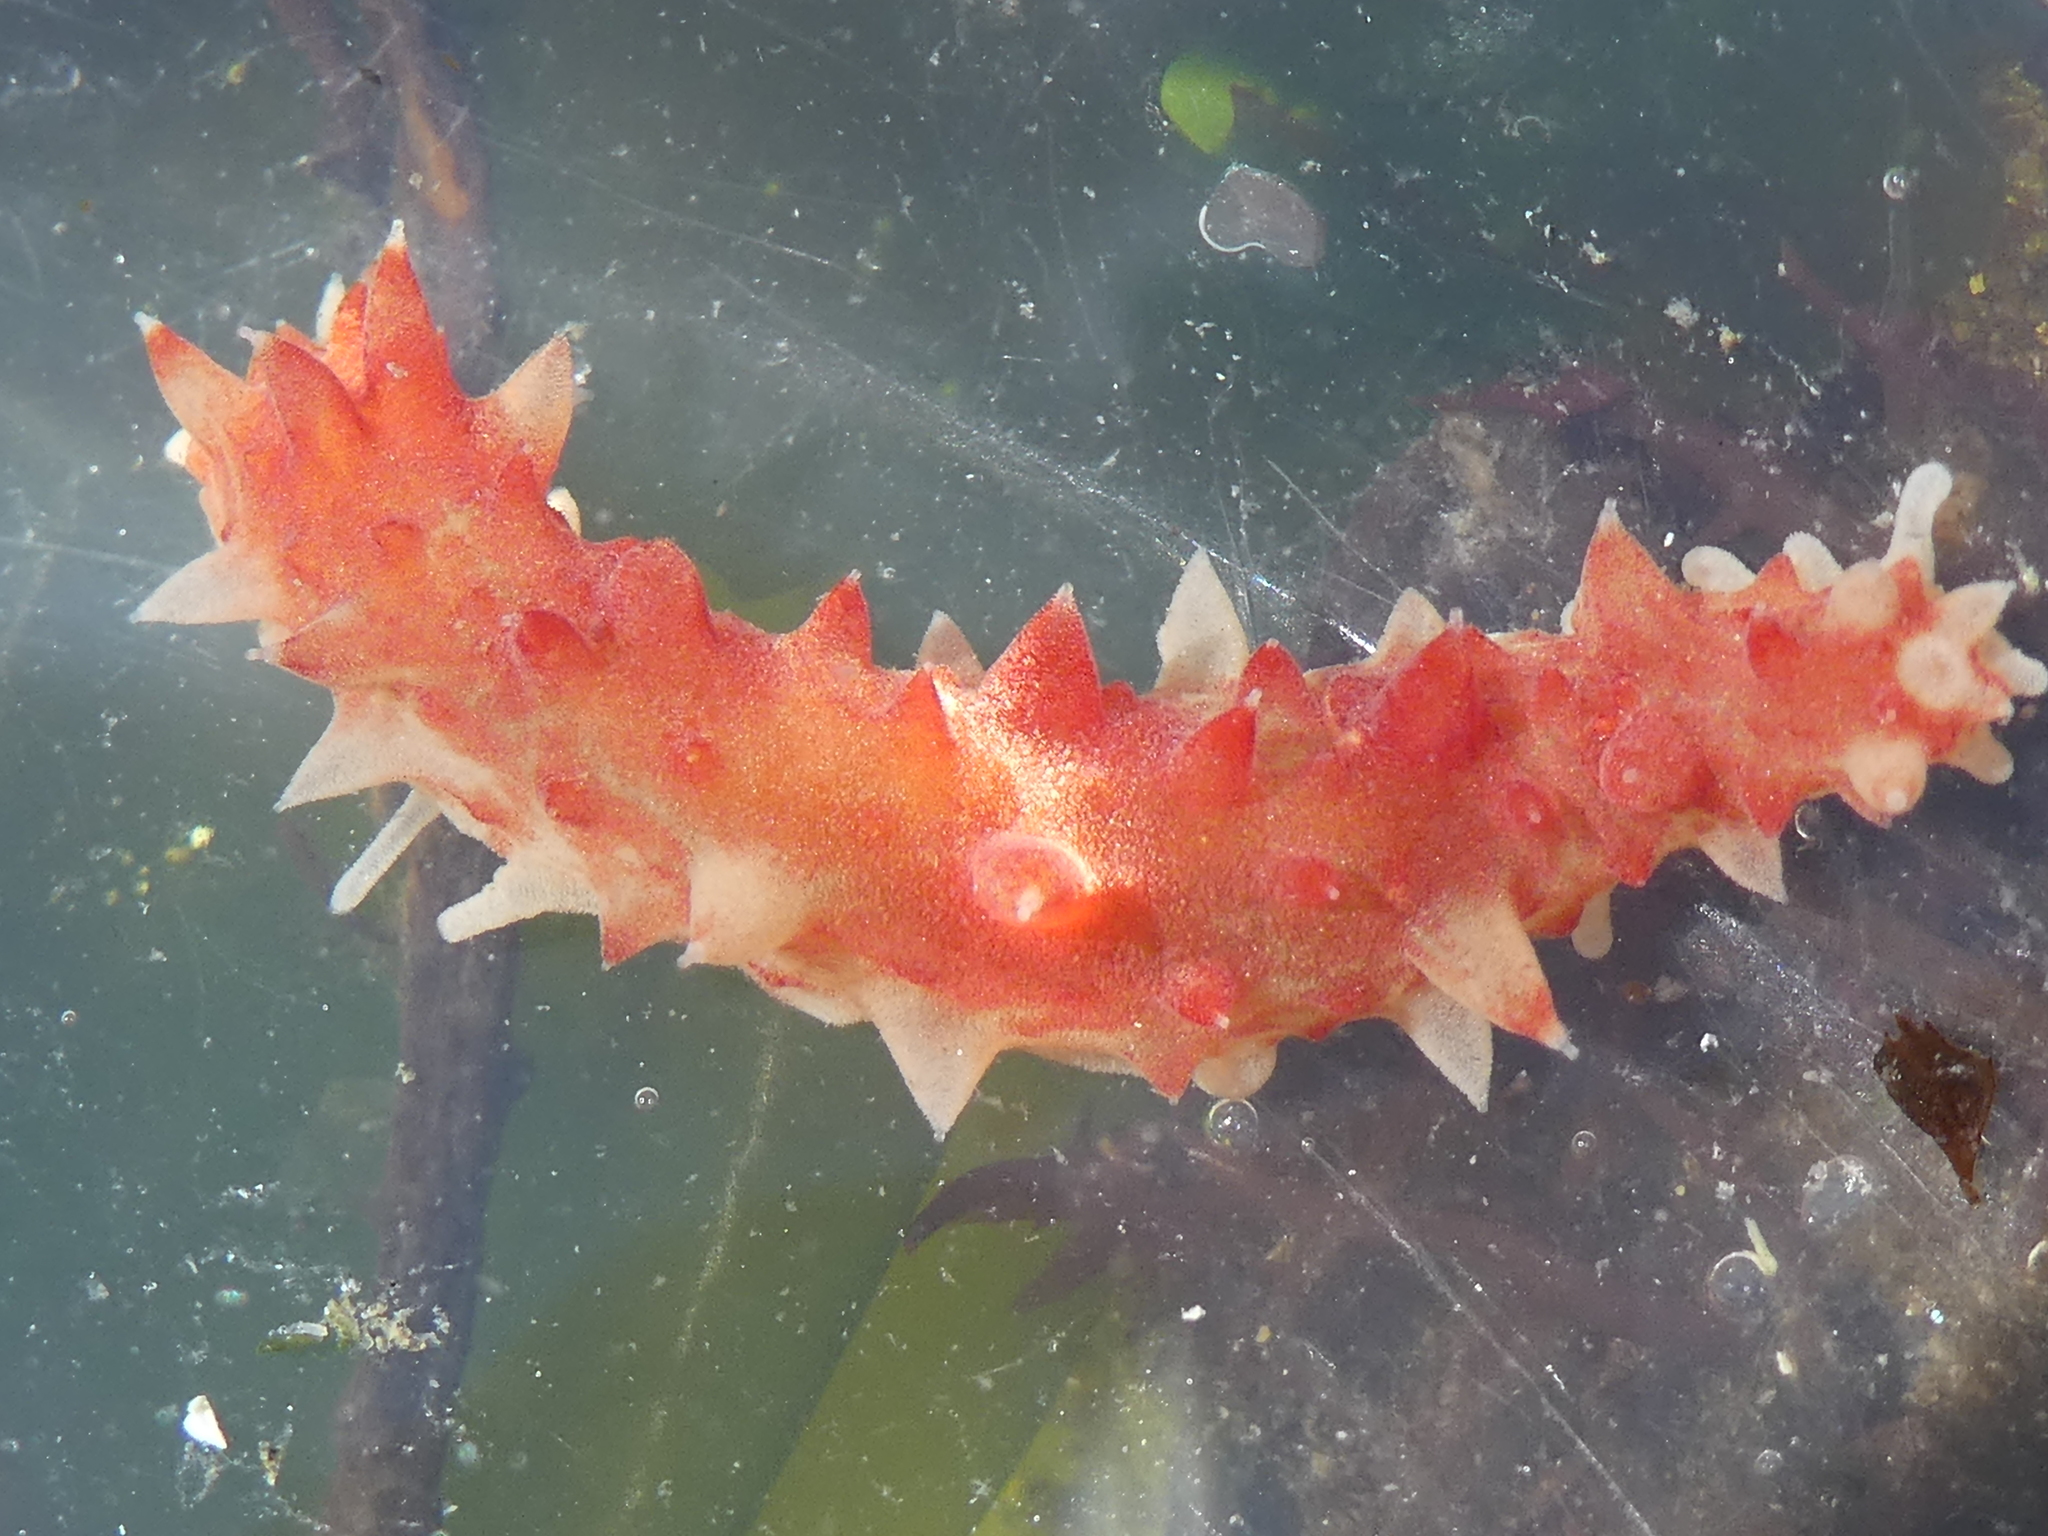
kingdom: Animalia
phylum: Echinodermata
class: Holothuroidea
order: Synallactida
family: Stichopodidae
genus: Apostichopus
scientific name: Apostichopus californicus
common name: California sea cucumber
